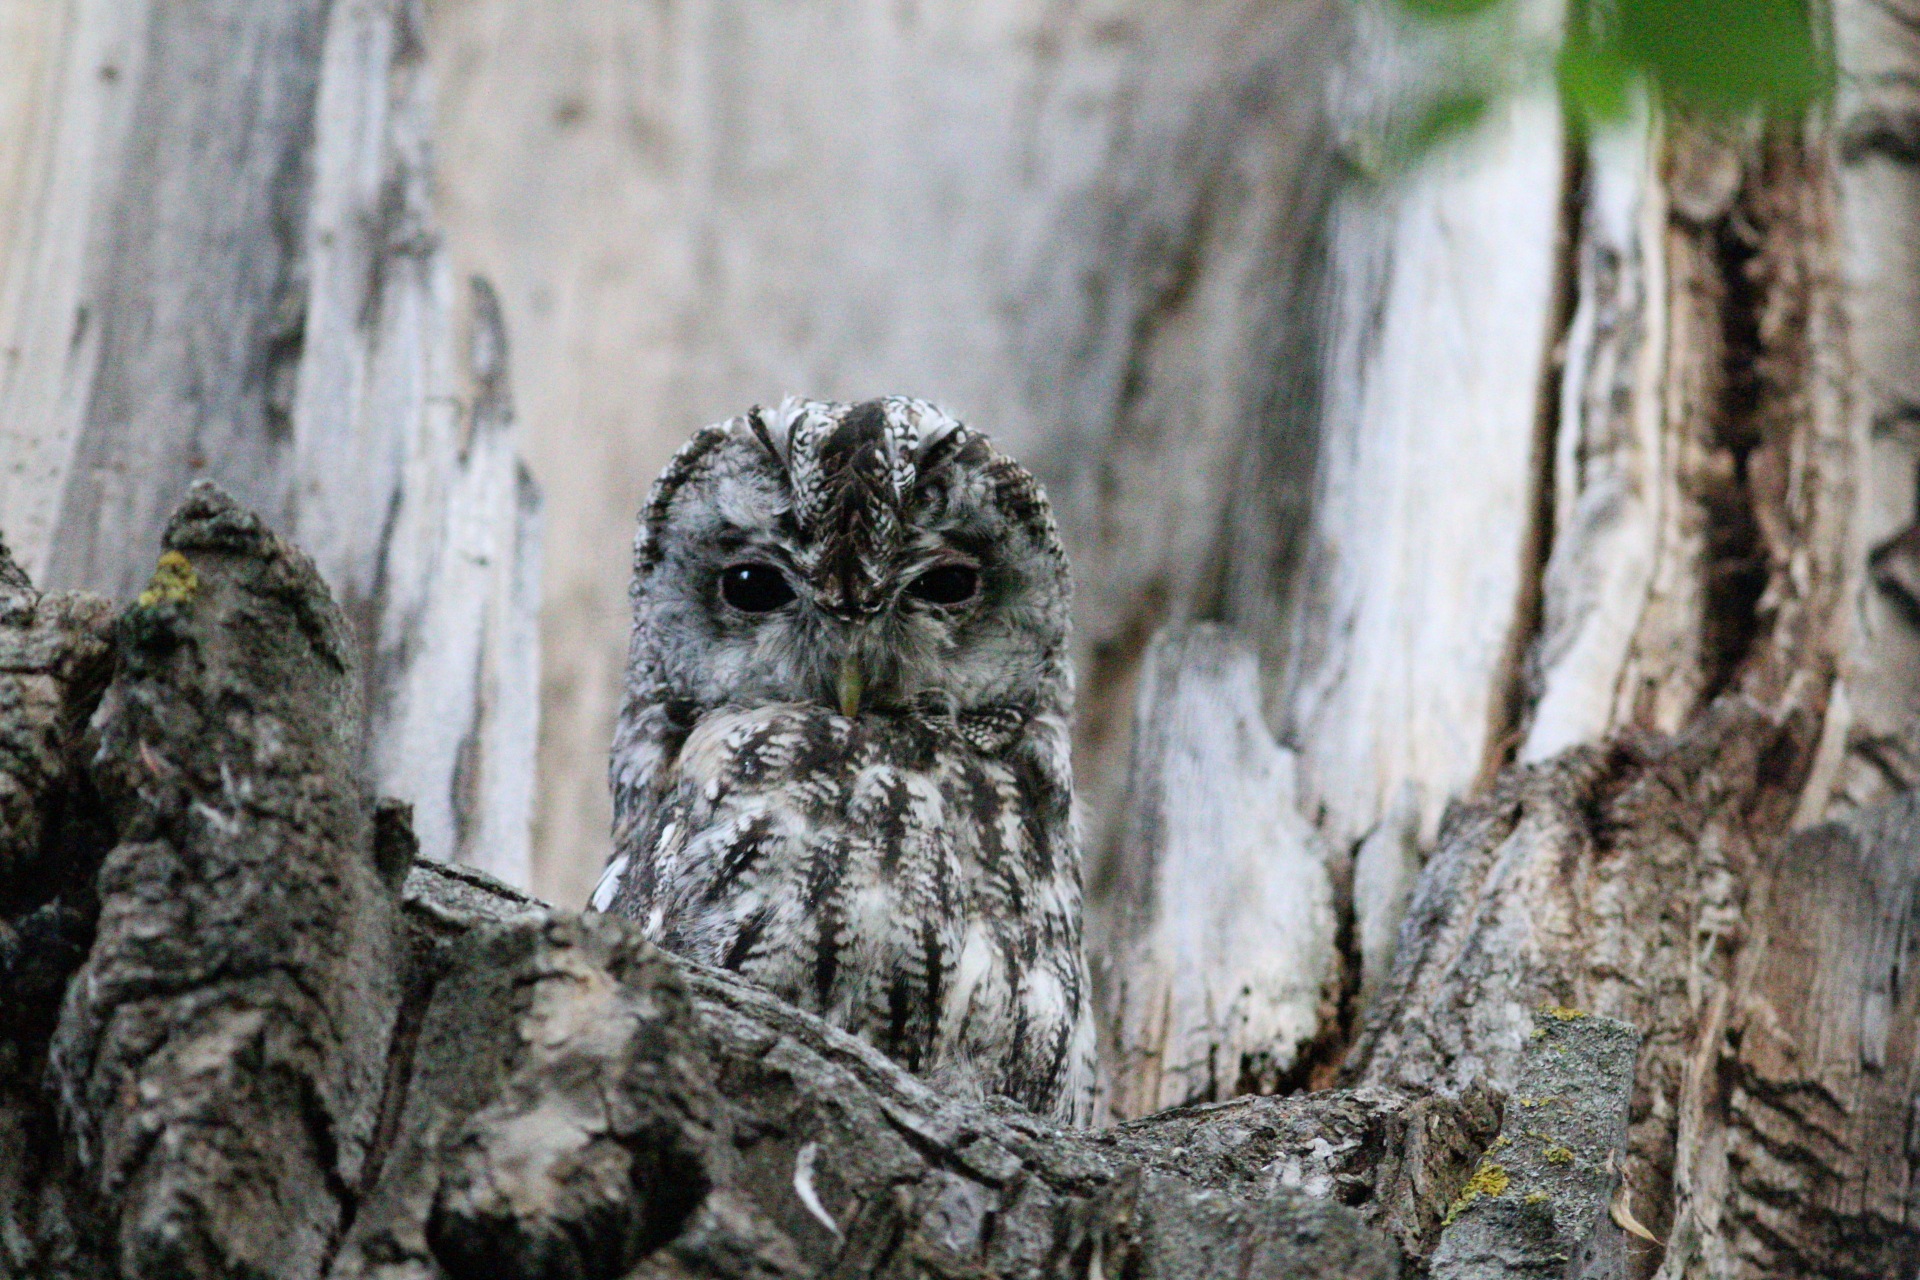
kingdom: Animalia
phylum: Chordata
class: Aves
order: Strigiformes
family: Strigidae
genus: Strix
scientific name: Strix aluco
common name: Tawny owl
